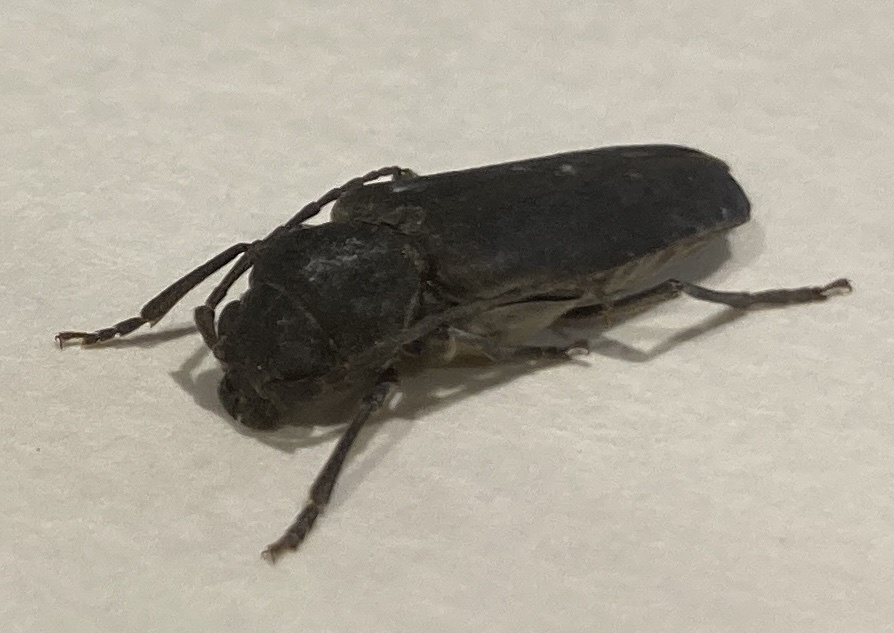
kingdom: Animalia
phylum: Arthropoda
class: Insecta
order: Coleoptera
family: Cerambycidae
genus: Arhopalus
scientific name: Arhopalus ferus
